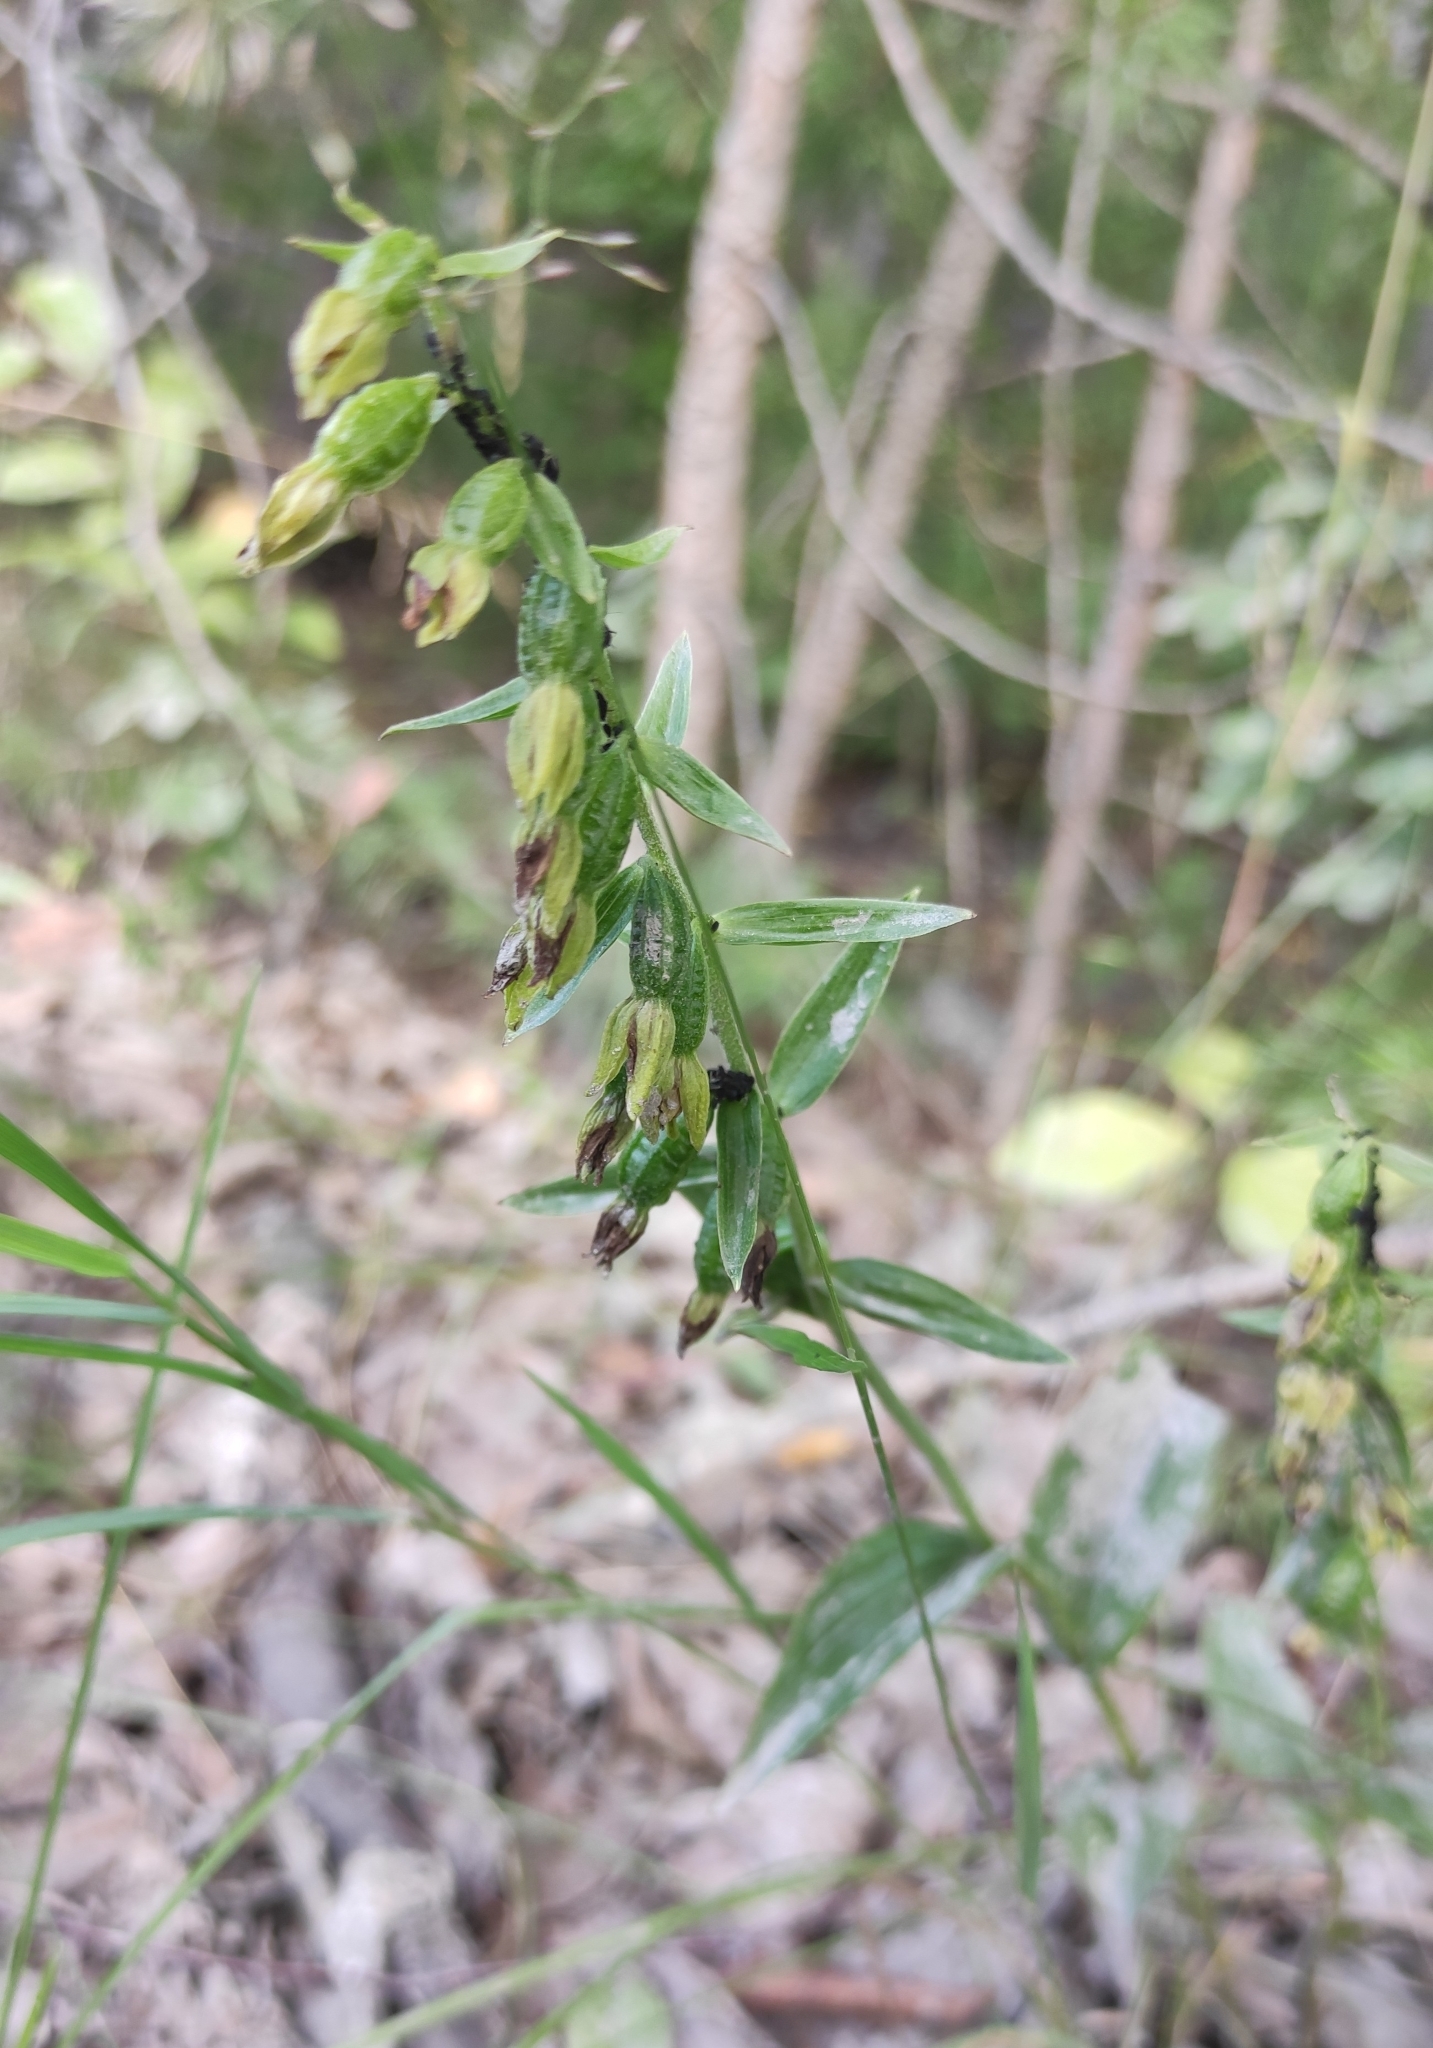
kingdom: Plantae
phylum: Tracheophyta
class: Liliopsida
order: Asparagales
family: Orchidaceae
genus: Epipactis
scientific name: Epipactis helleborine
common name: Broad-leaved helleborine
